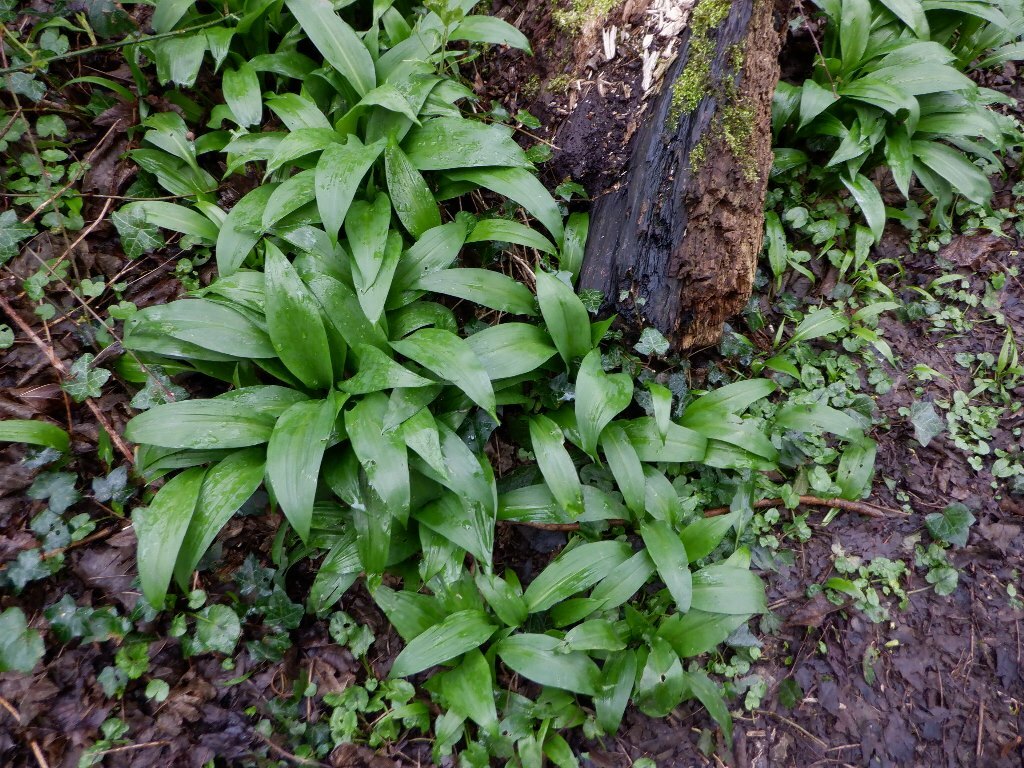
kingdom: Plantae
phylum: Tracheophyta
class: Liliopsida
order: Asparagales
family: Amaryllidaceae
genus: Allium
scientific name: Allium ursinum
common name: Ramsons
